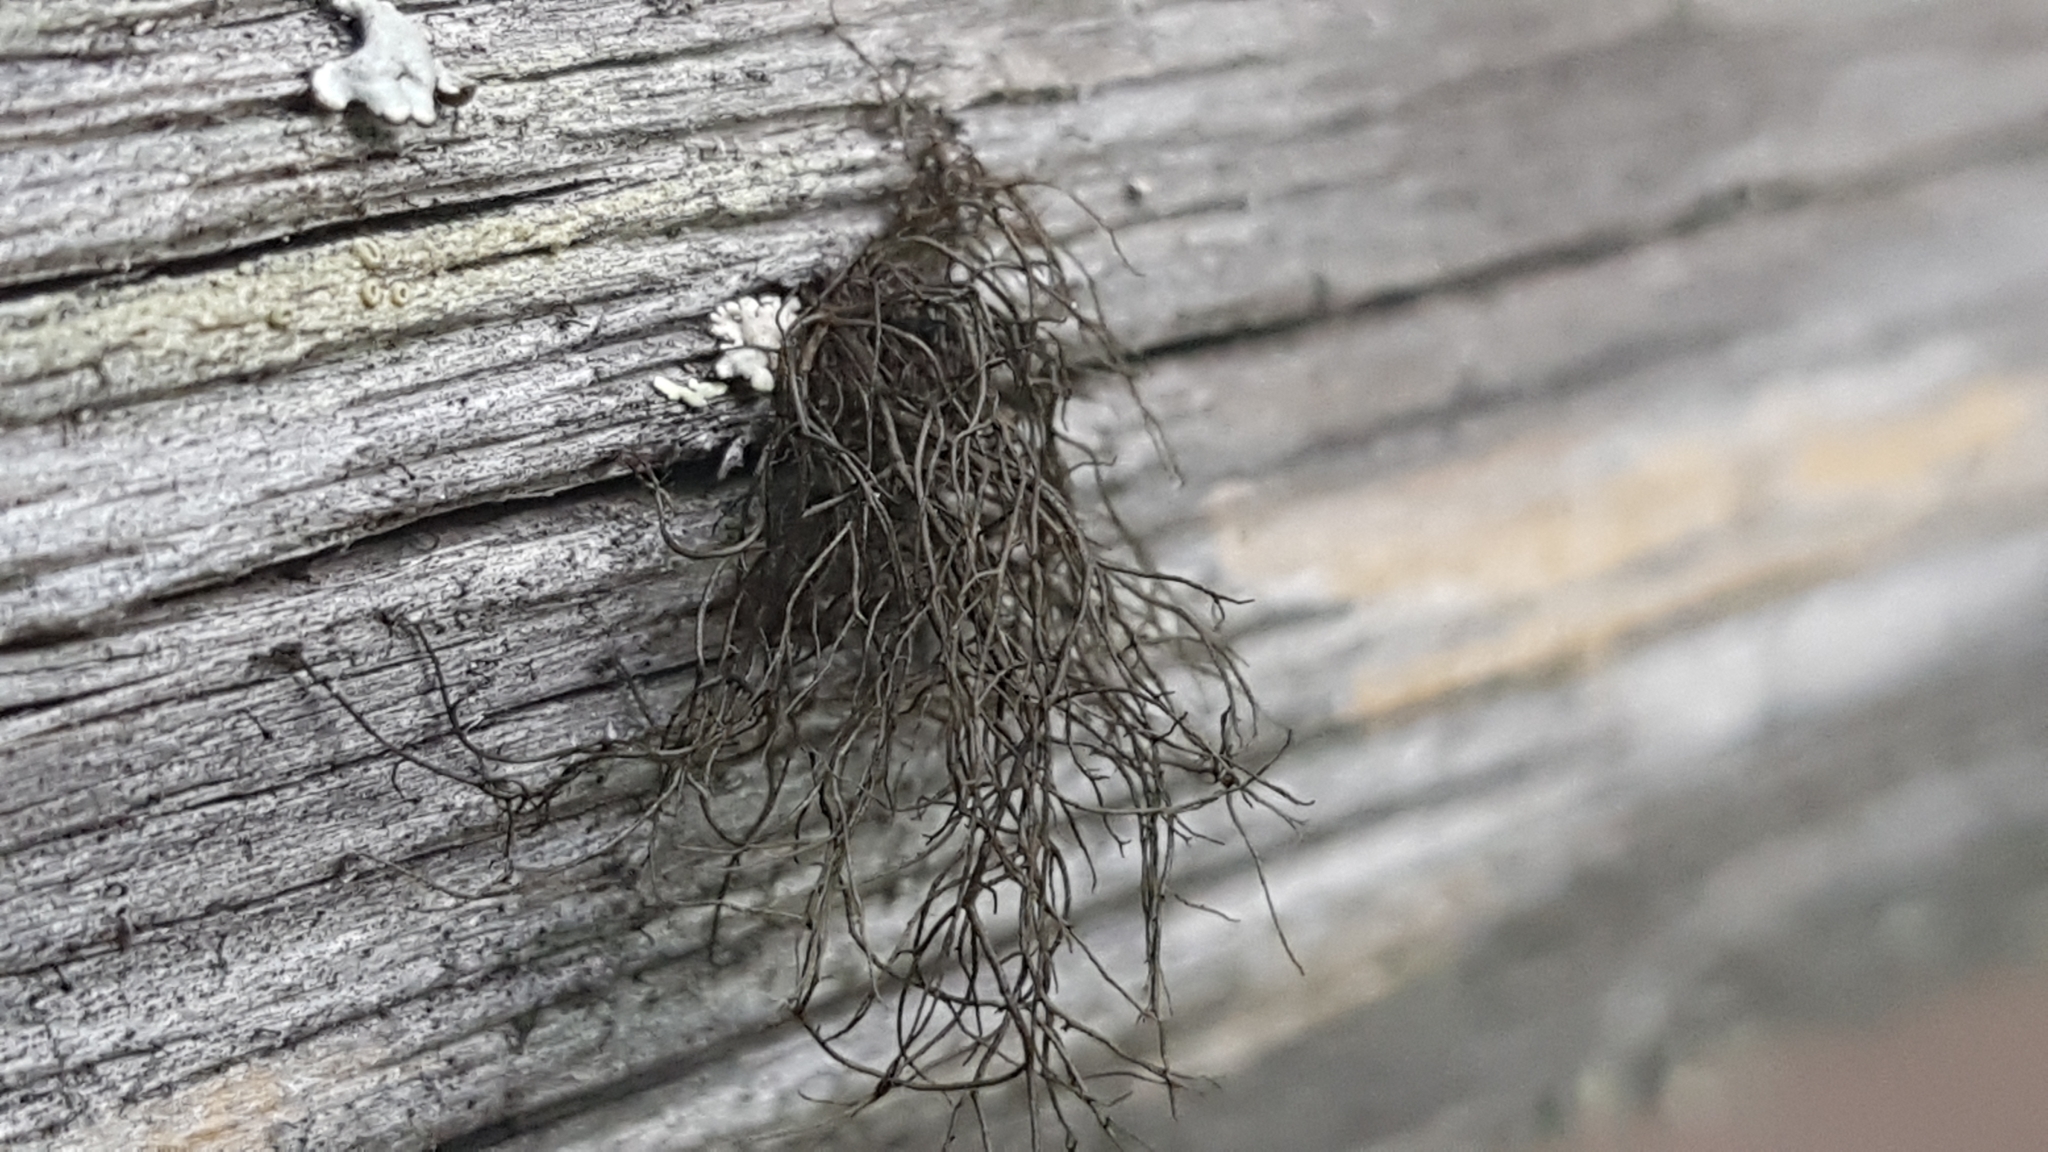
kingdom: Fungi
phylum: Ascomycota
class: Lecanoromycetes
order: Lecanorales
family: Parmeliaceae
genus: Bryoria
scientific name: Bryoria furcellata
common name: Forked hair-lichen
